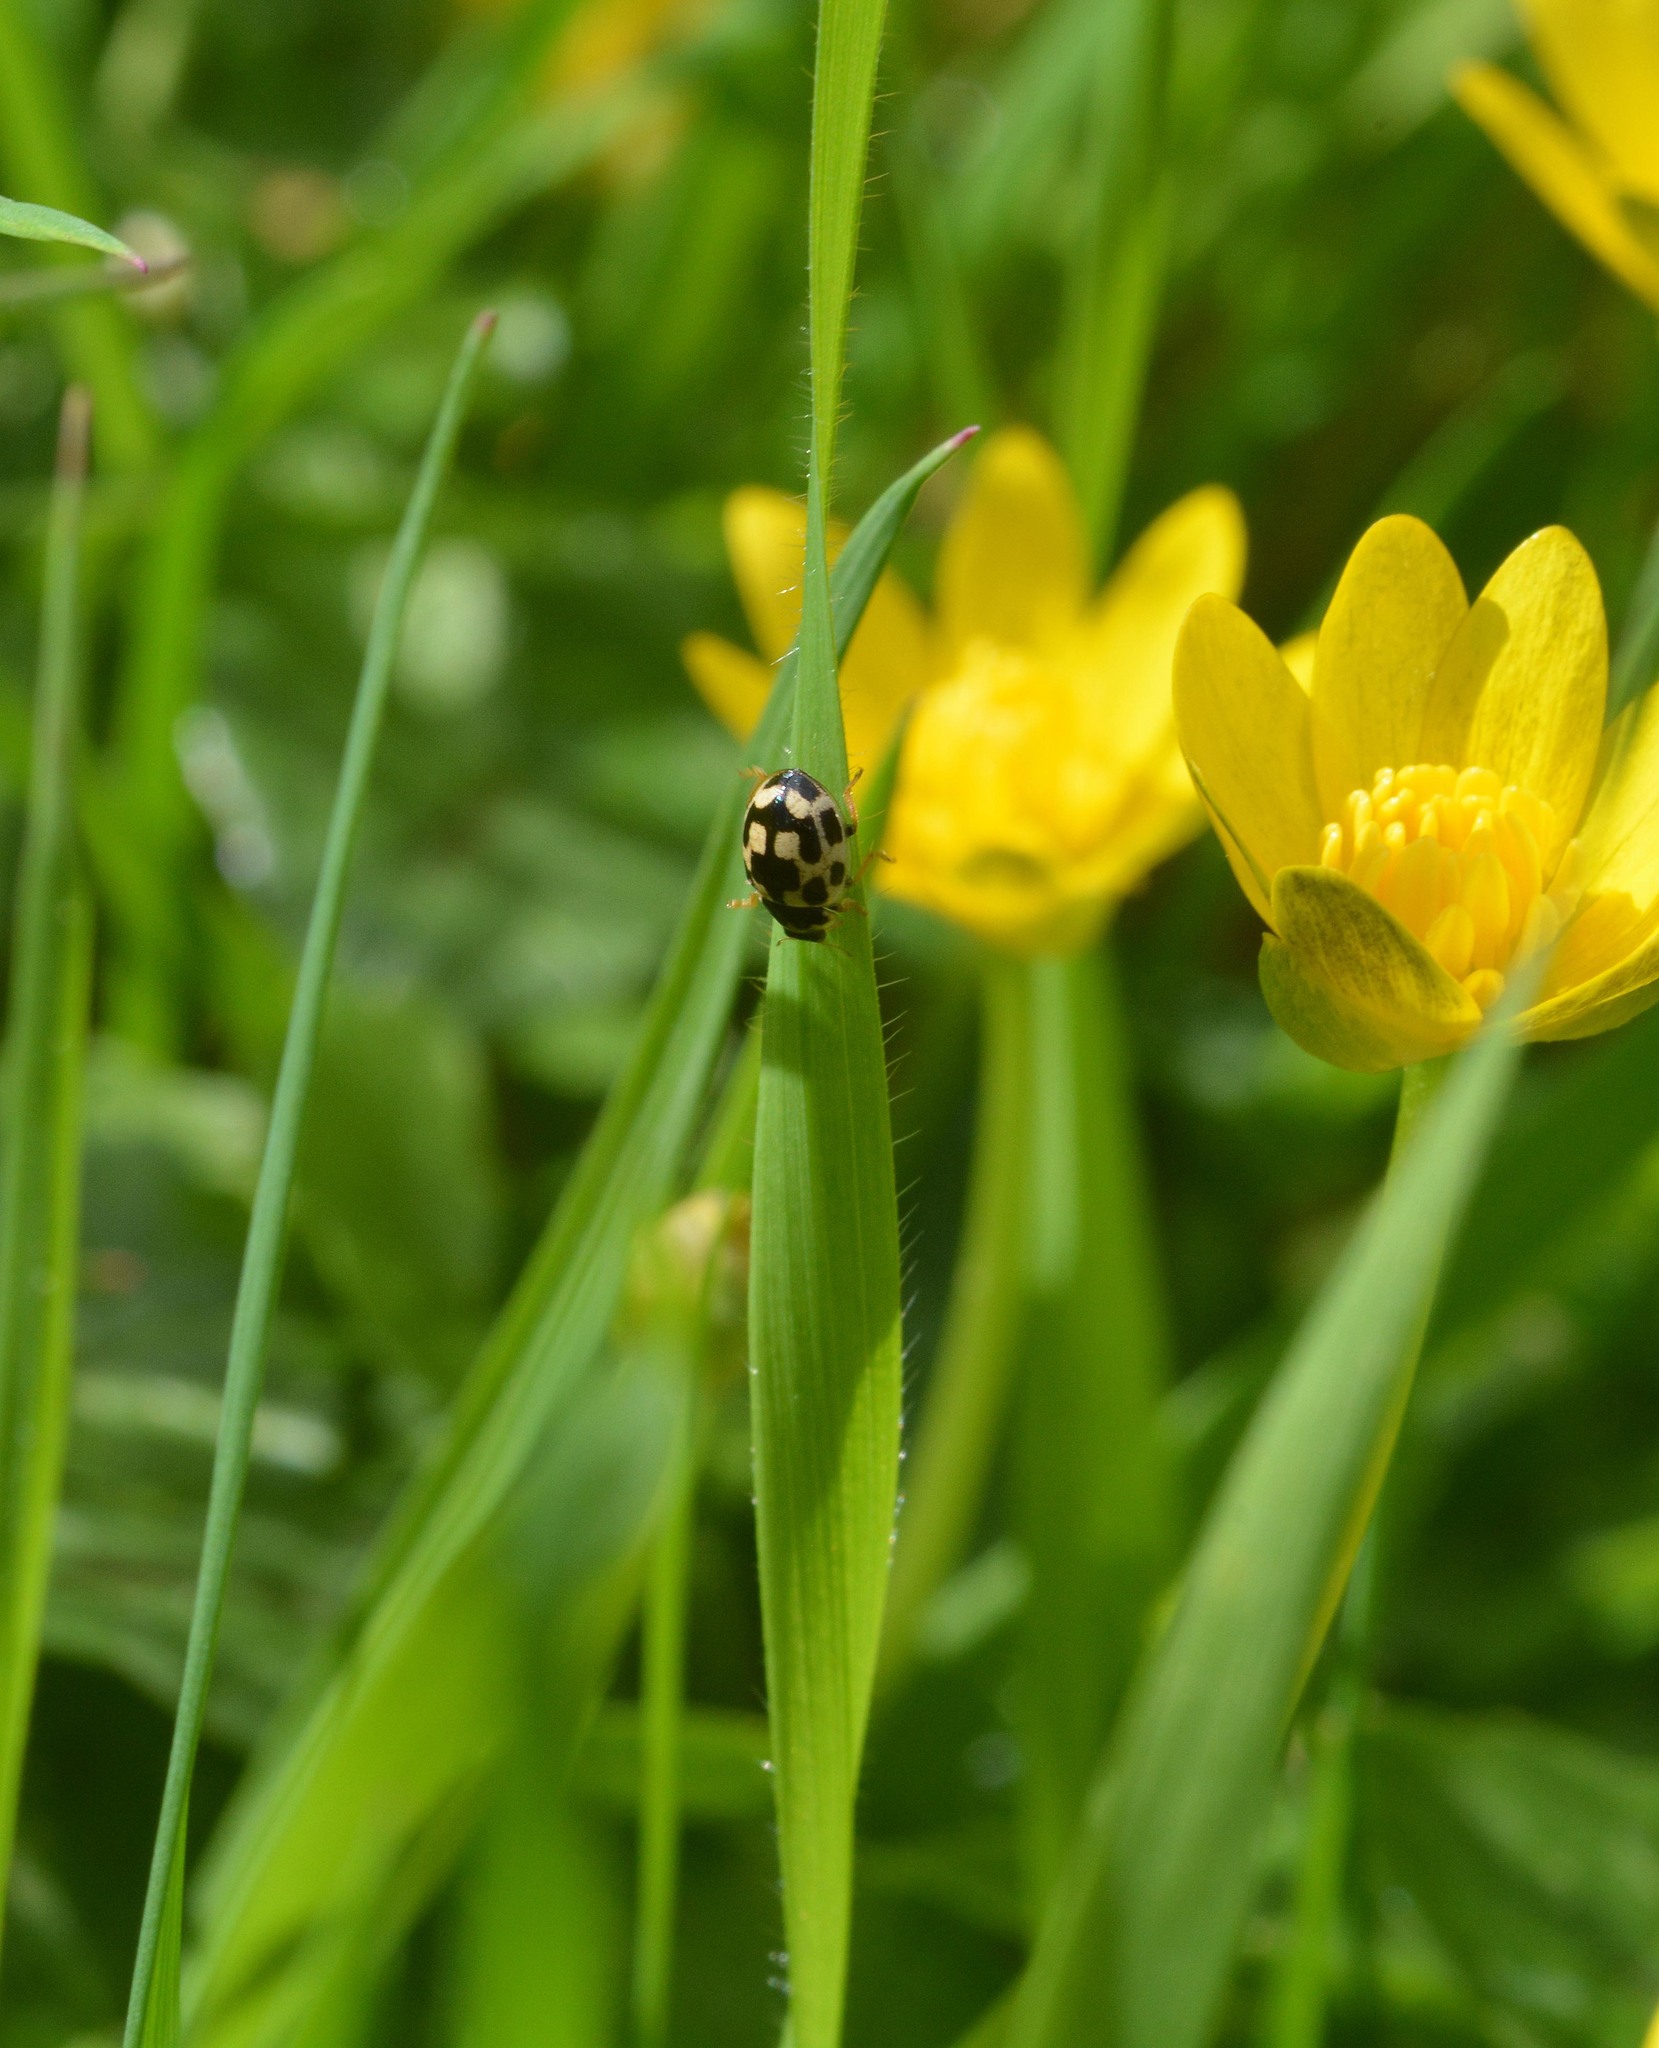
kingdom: Animalia
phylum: Arthropoda
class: Insecta
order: Coleoptera
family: Coccinellidae
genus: Propylaea
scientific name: Propylaea quatuordecimpunctata
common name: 14-spotted ladybird beetle
